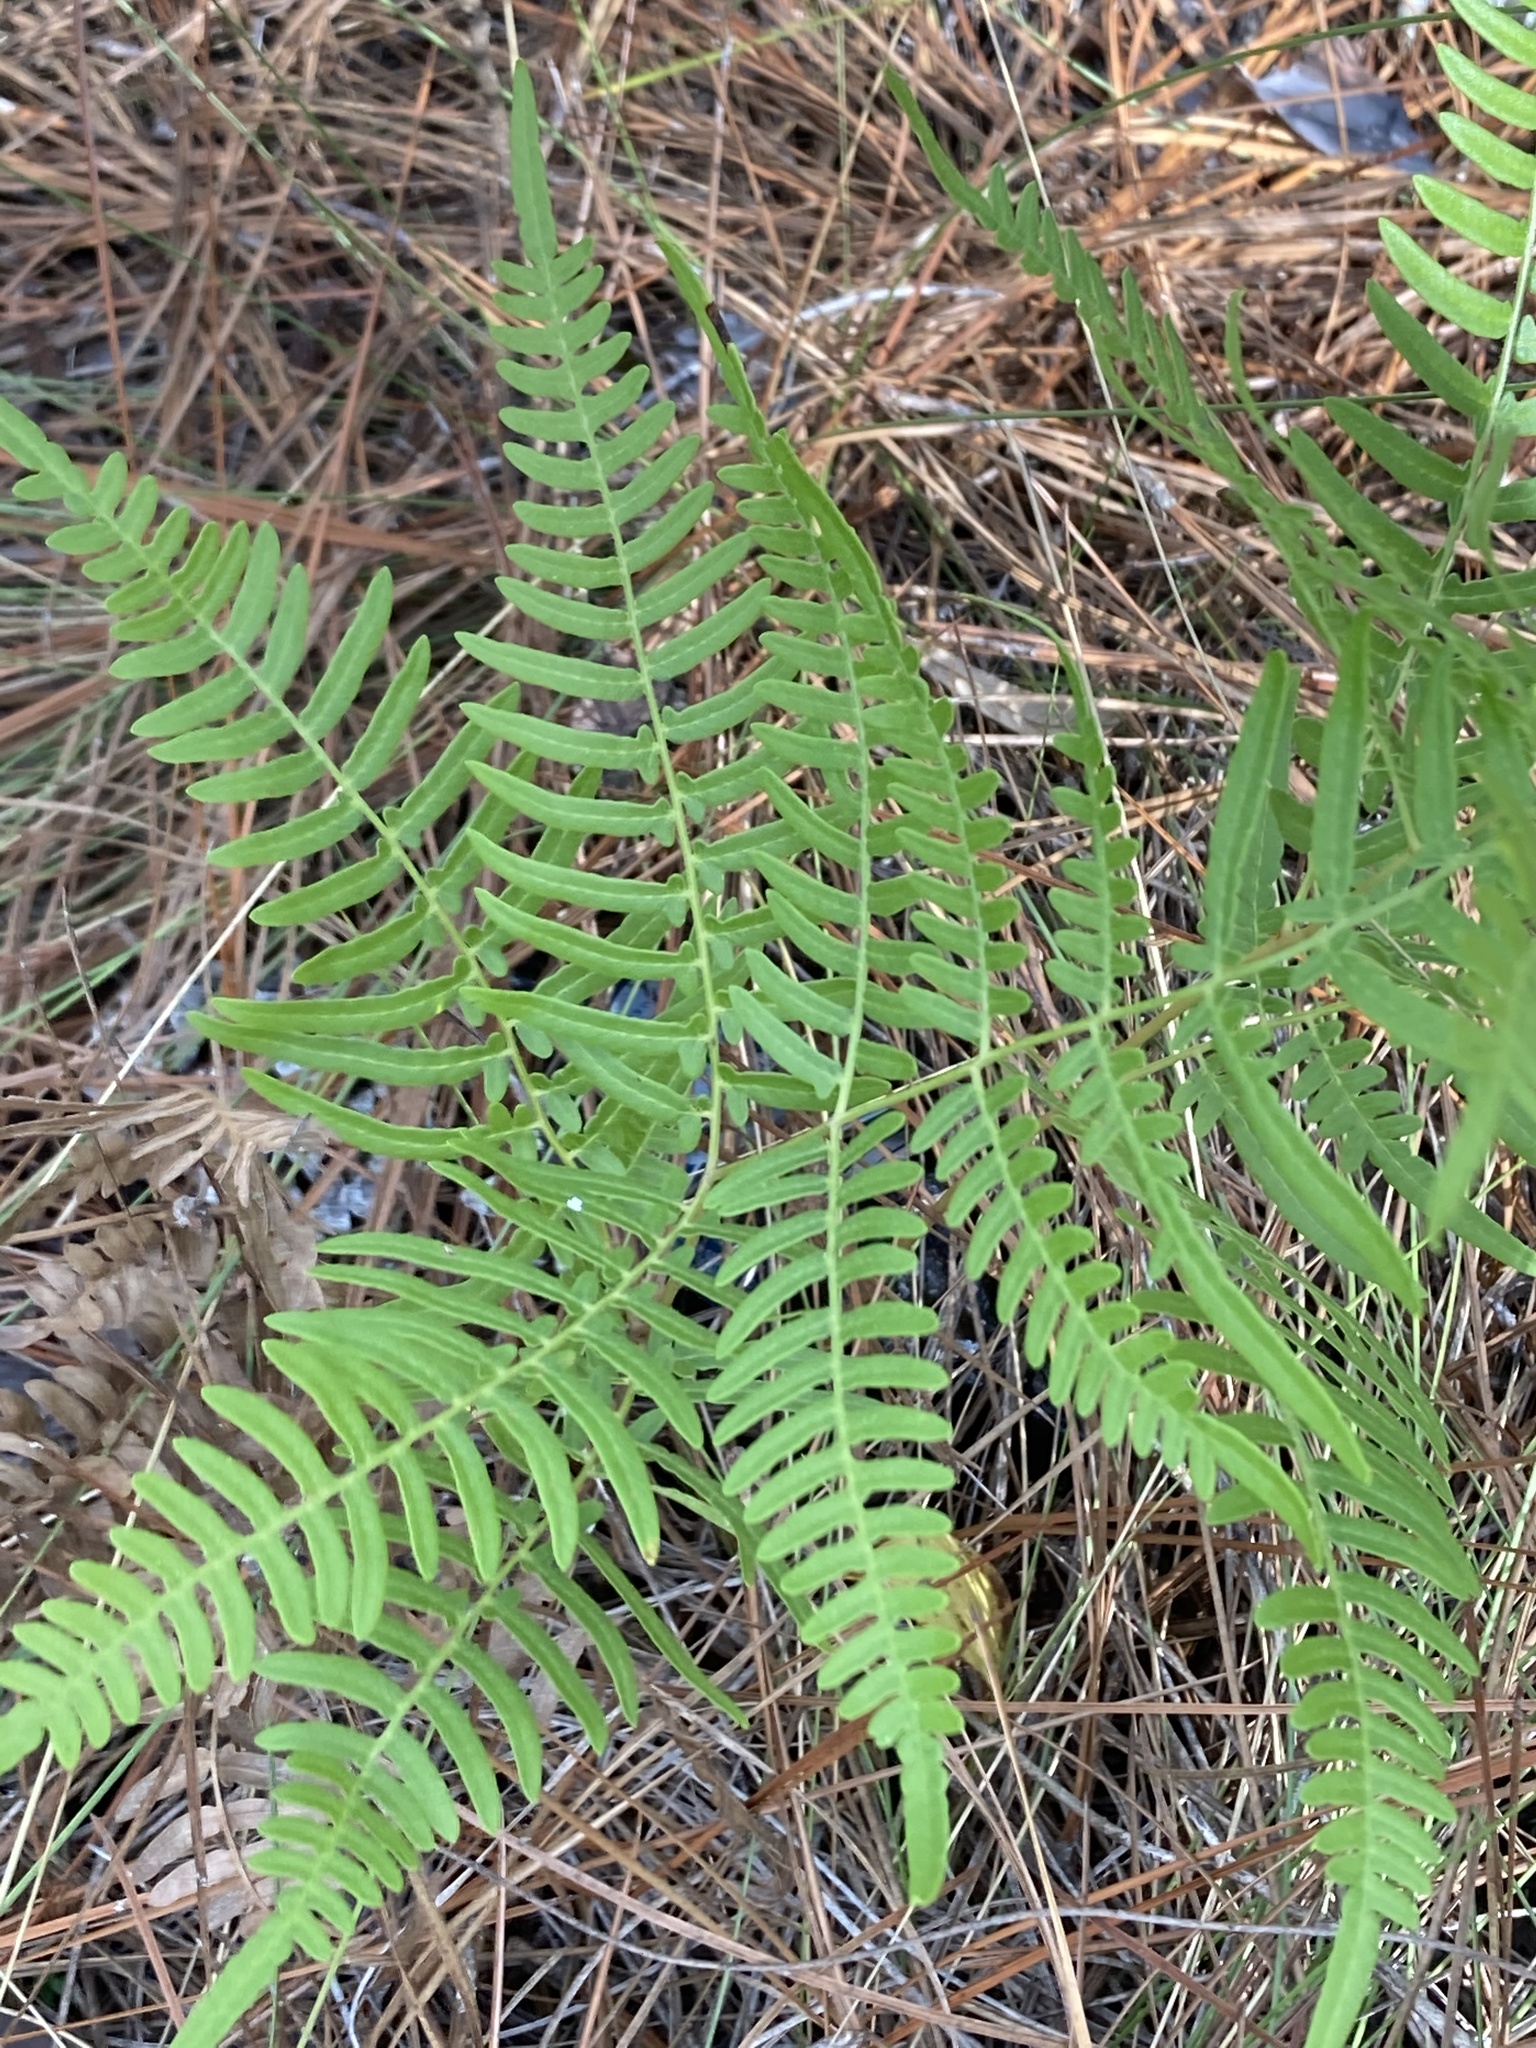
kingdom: Plantae
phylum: Tracheophyta
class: Polypodiopsida
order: Polypodiales
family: Dennstaedtiaceae
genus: Pteridium
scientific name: Pteridium
